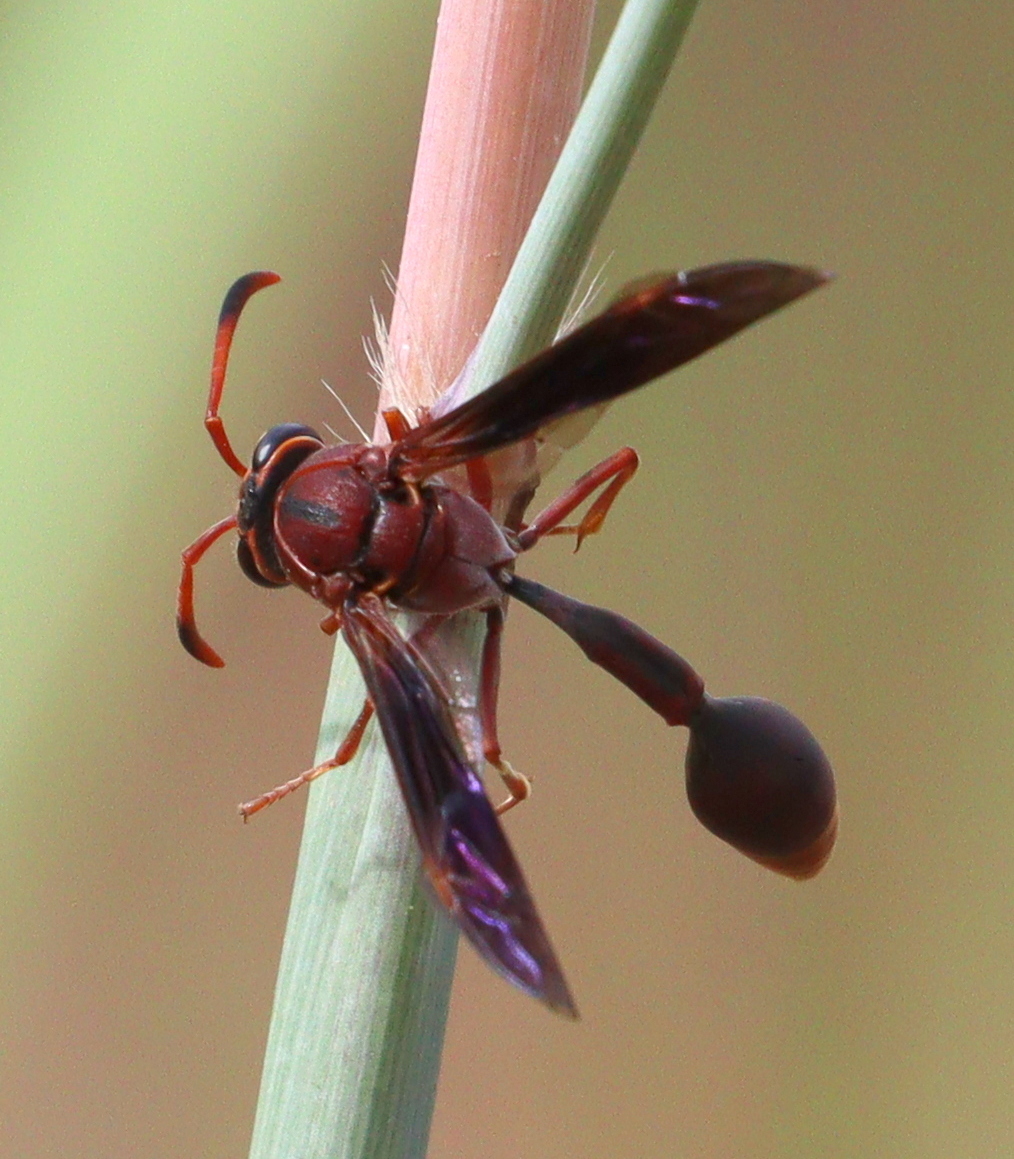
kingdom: Animalia
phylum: Arthropoda
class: Insecta
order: Hymenoptera
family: Eumenidae
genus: Zeta
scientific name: Zeta argillaceum
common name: Potter wasp
